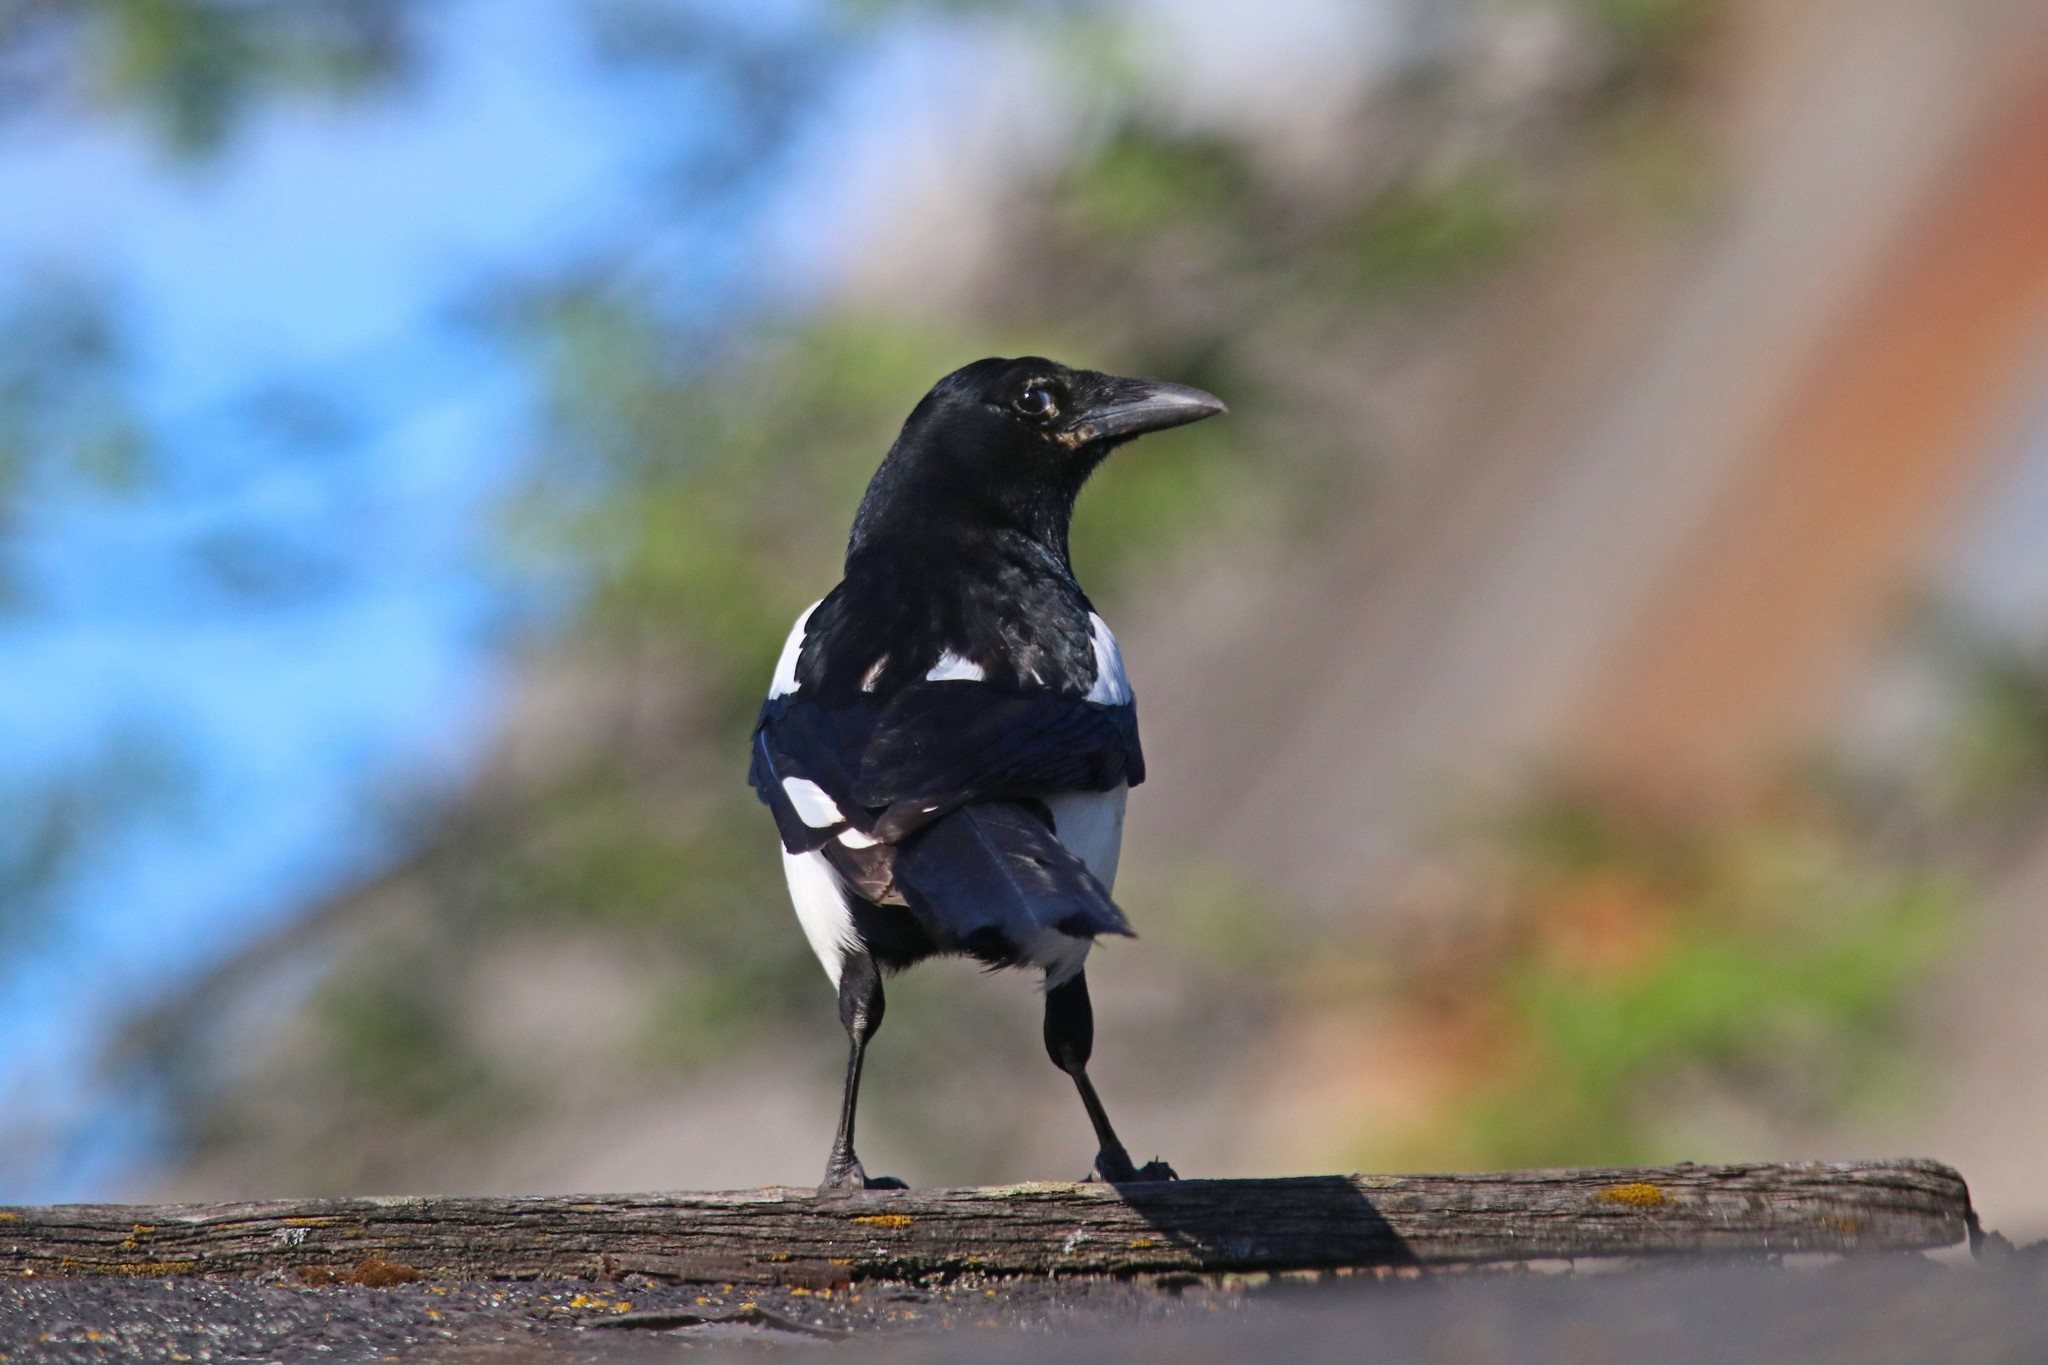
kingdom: Animalia
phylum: Chordata
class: Aves
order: Passeriformes
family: Corvidae
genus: Pica
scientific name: Pica pica
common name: Eurasian magpie
